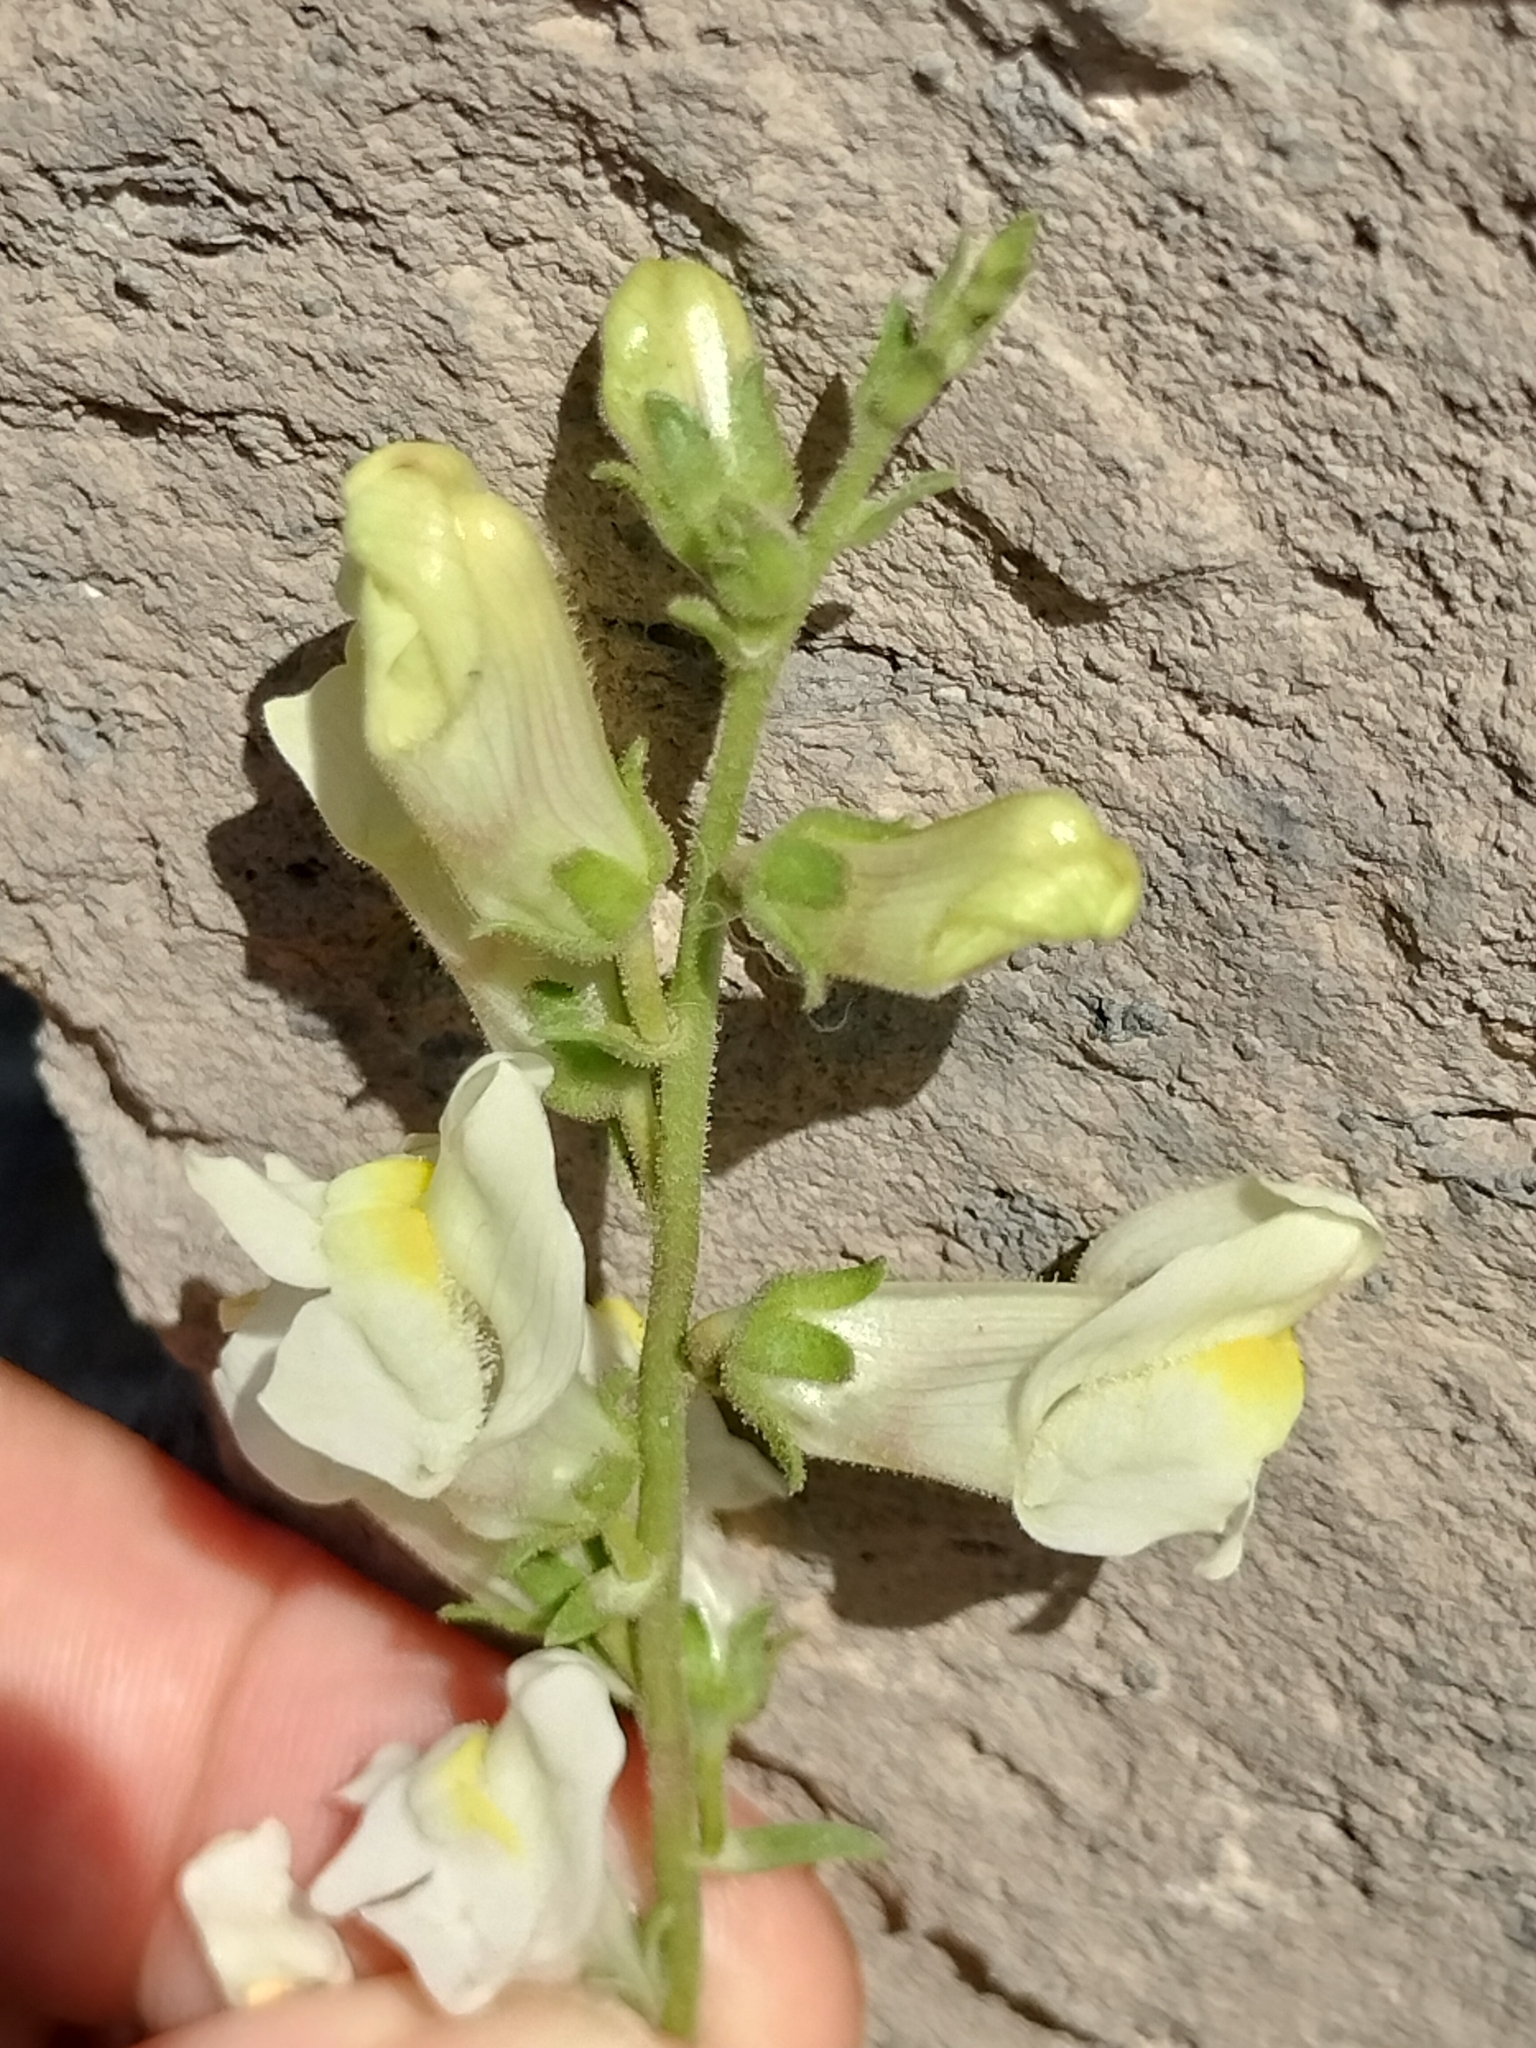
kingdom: Plantae
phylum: Tracheophyta
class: Magnoliopsida
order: Lamiales
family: Plantaginaceae
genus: Antirrhinum
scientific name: Antirrhinum siculum
